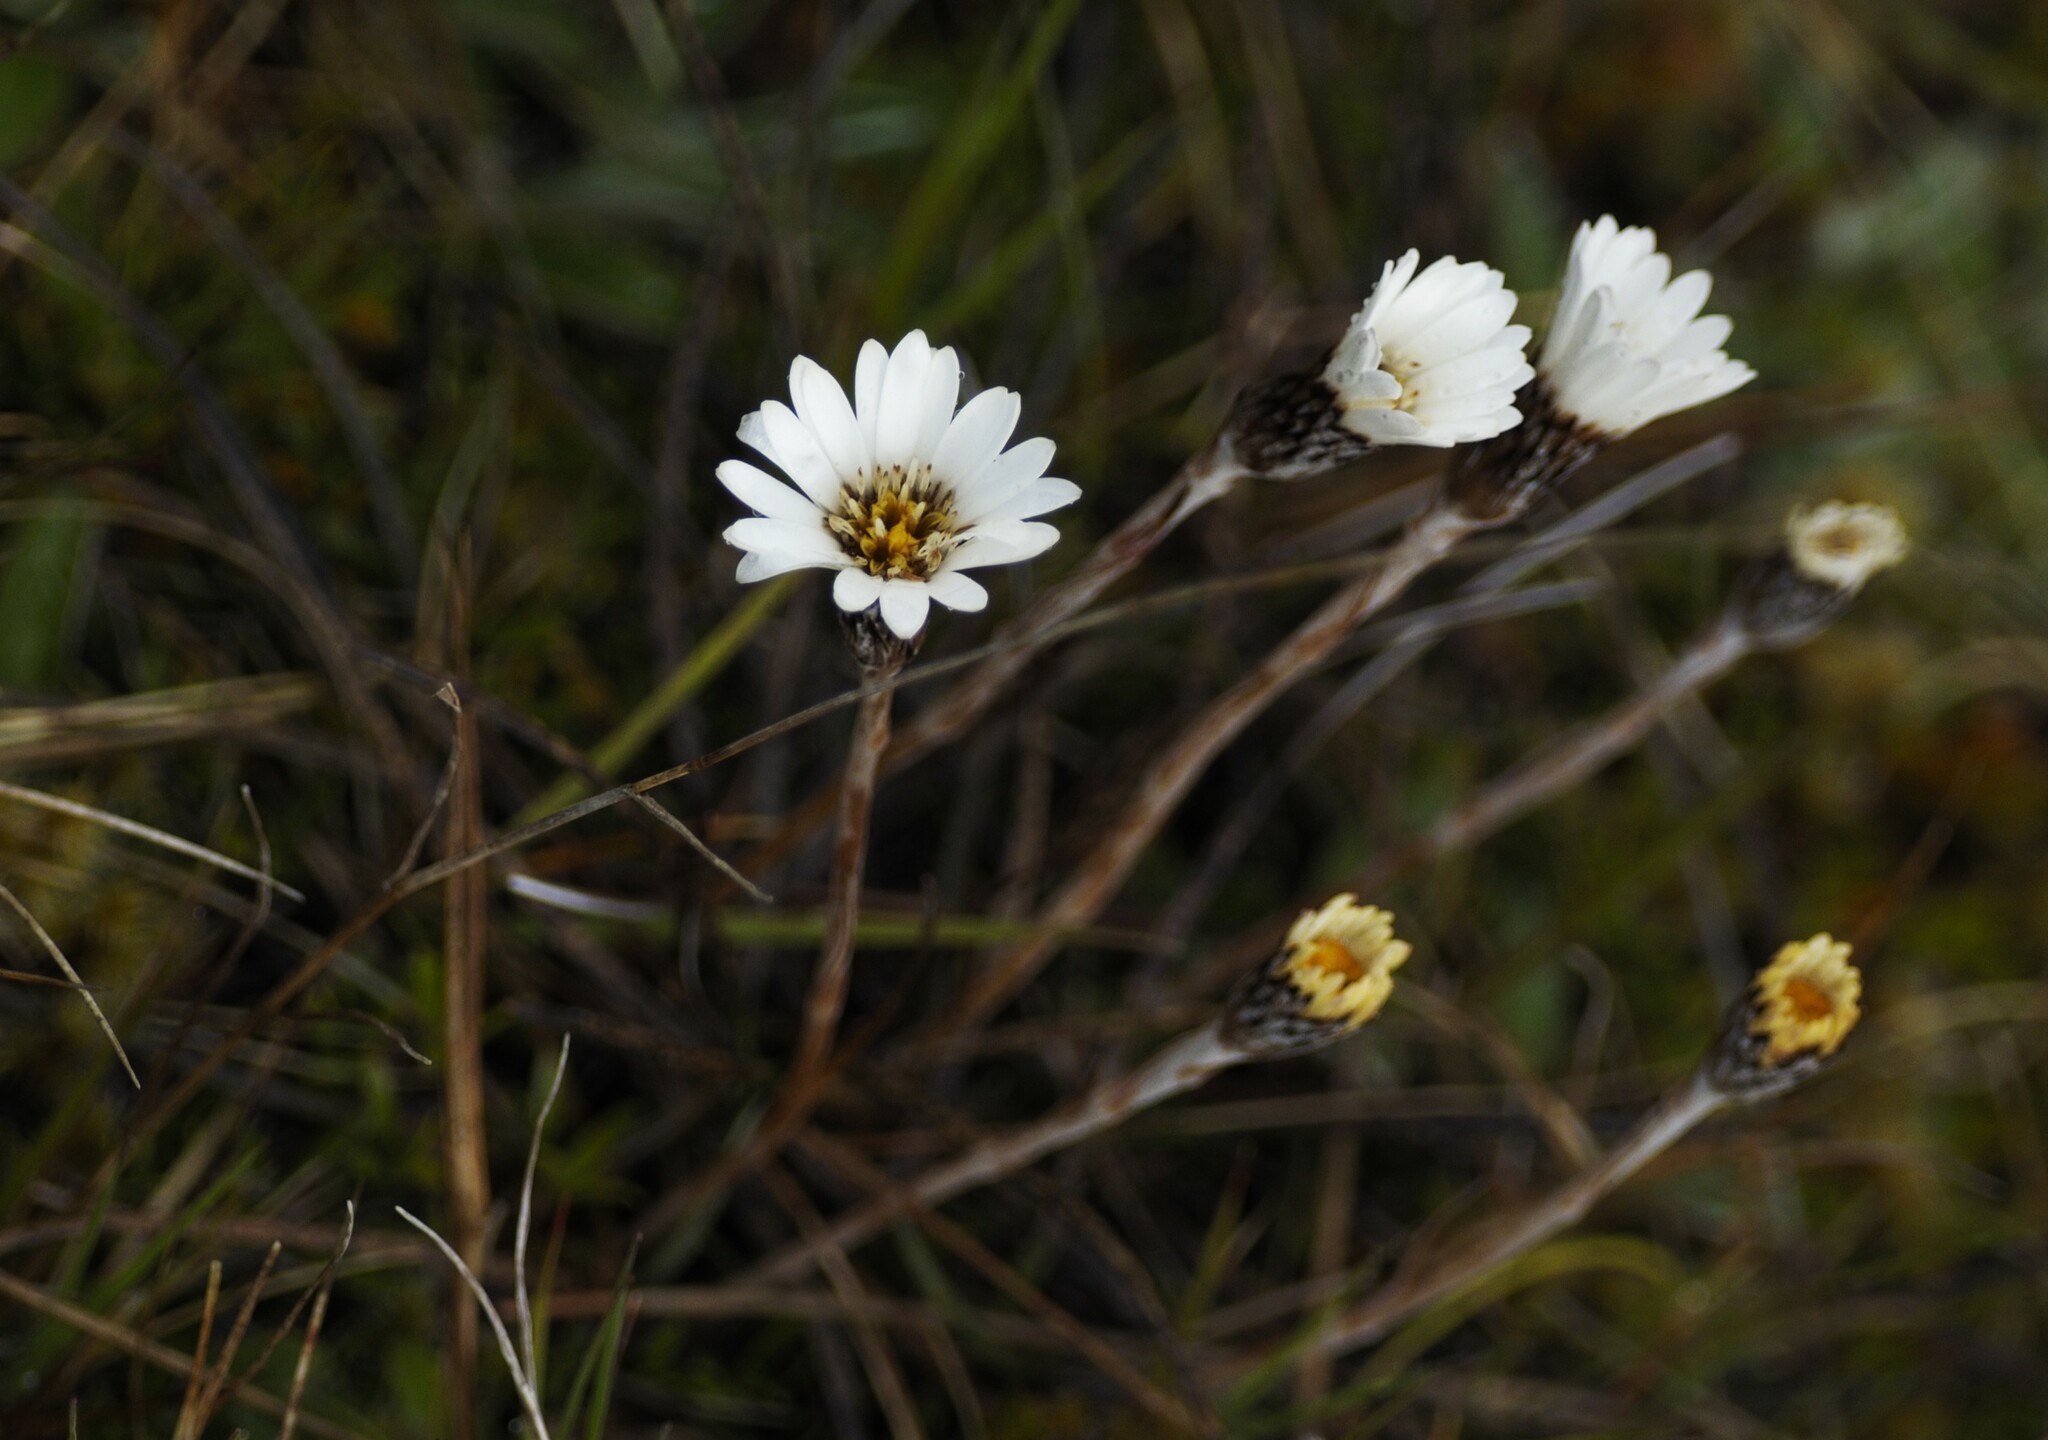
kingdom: Plantae
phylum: Tracheophyta
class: Magnoliopsida
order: Asterales
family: Asteraceae
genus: Celmisia
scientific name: Celmisia gracilenta
